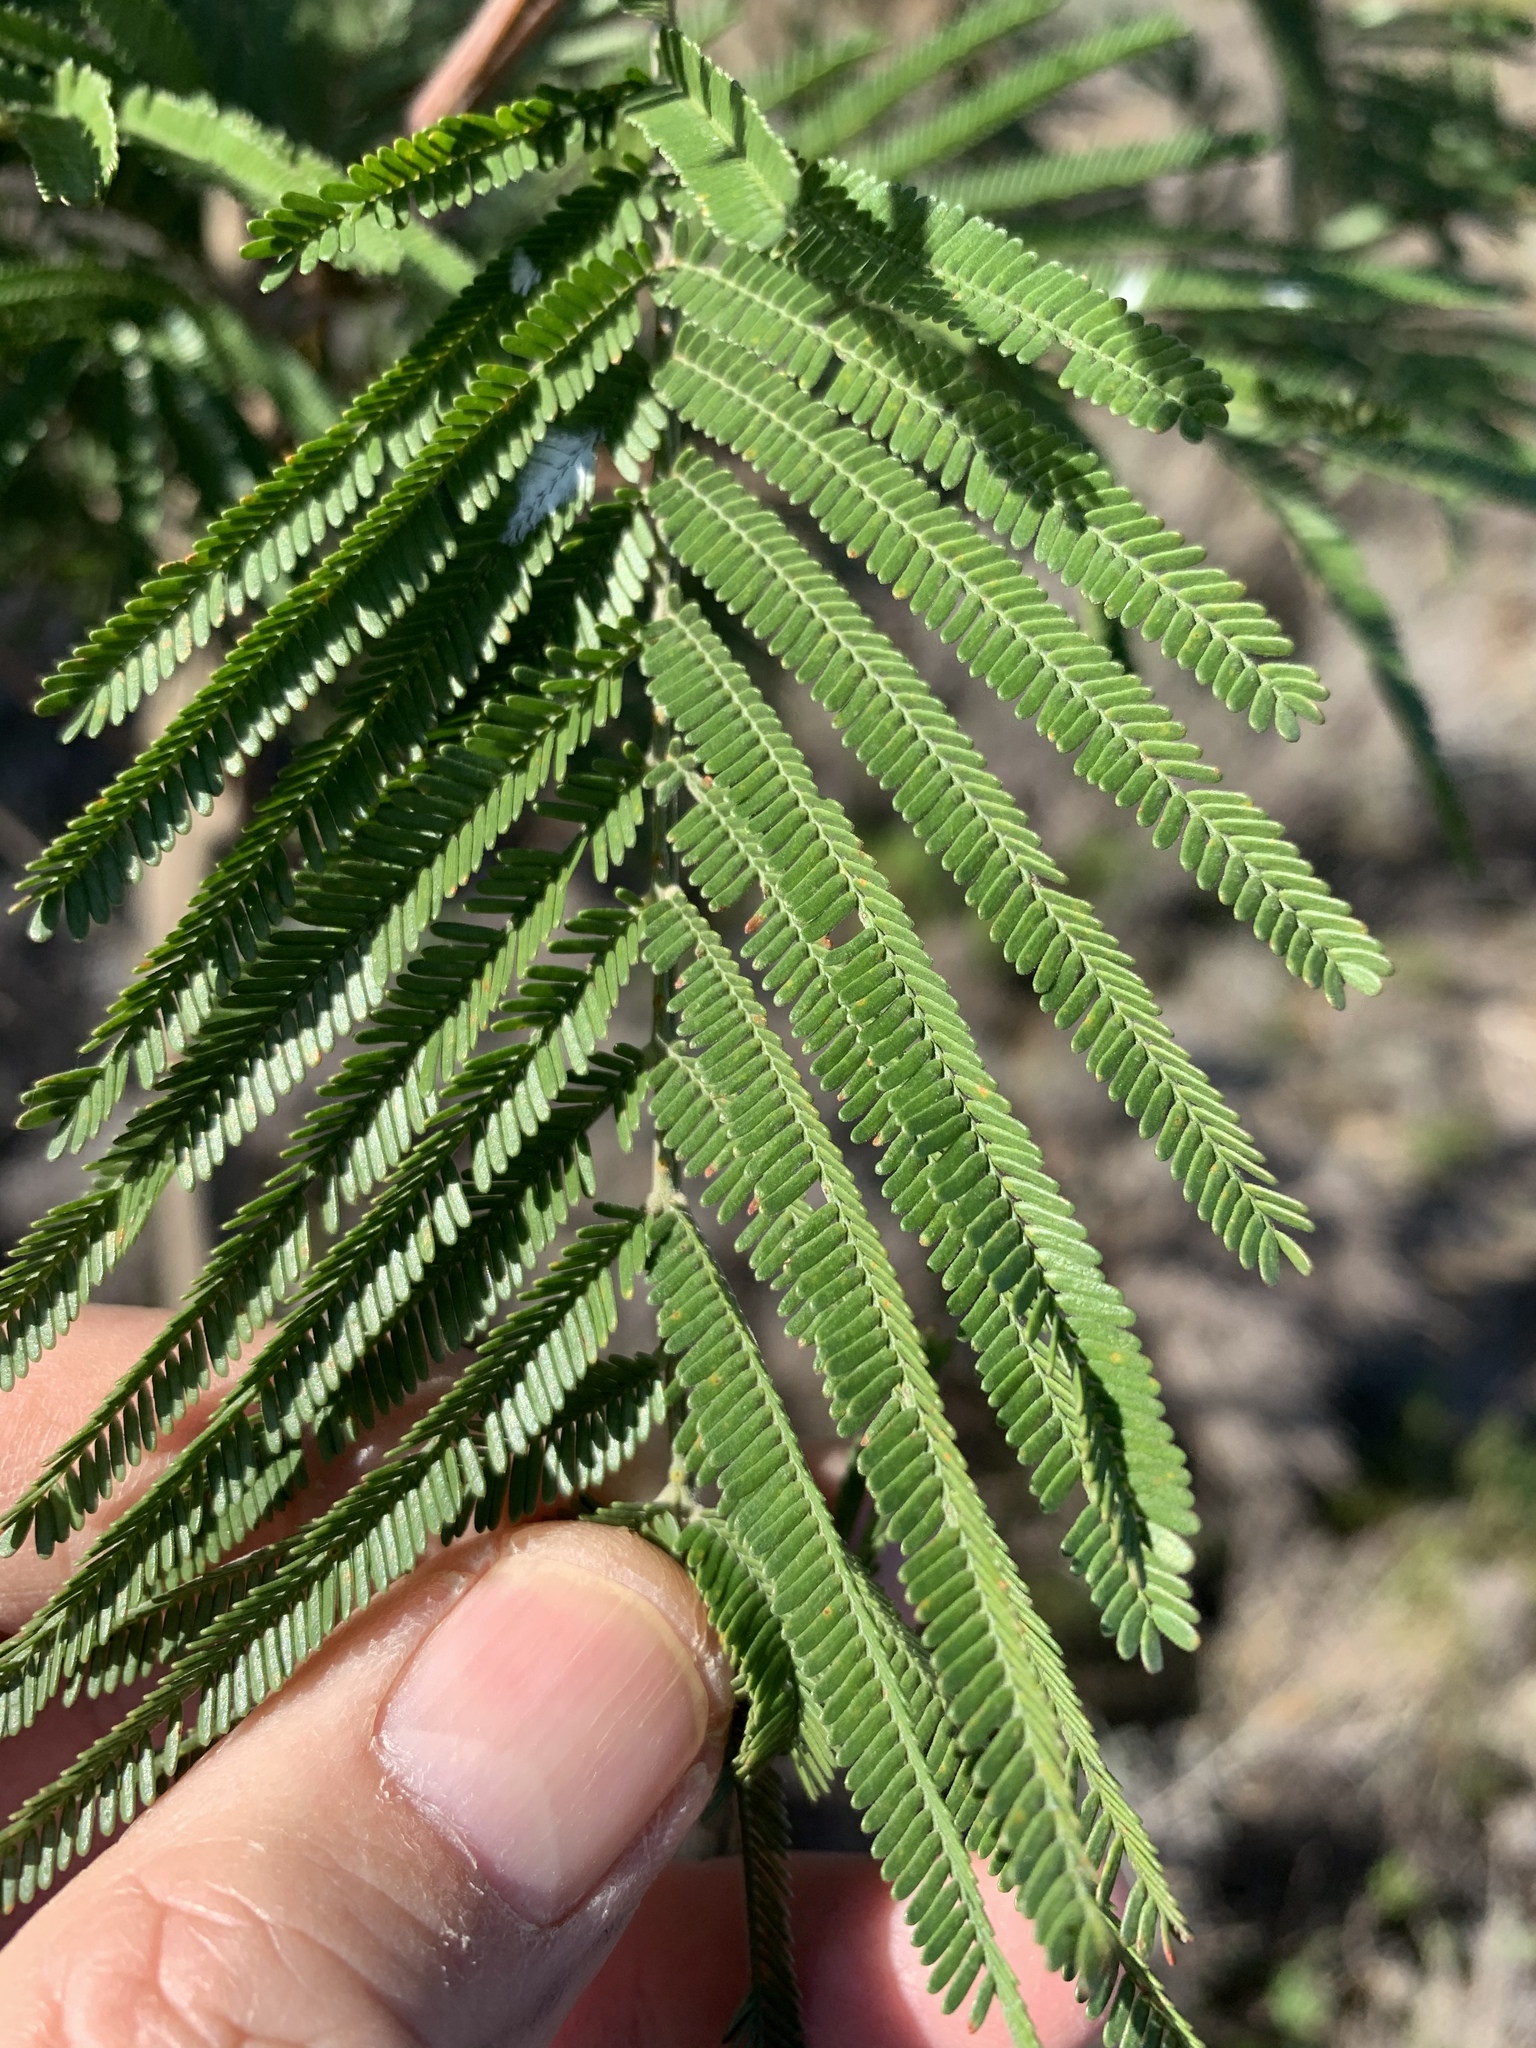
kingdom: Plantae
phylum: Tracheophyta
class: Magnoliopsida
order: Fabales
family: Fabaceae
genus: Acacia
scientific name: Acacia mearnsii
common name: Black wattle
